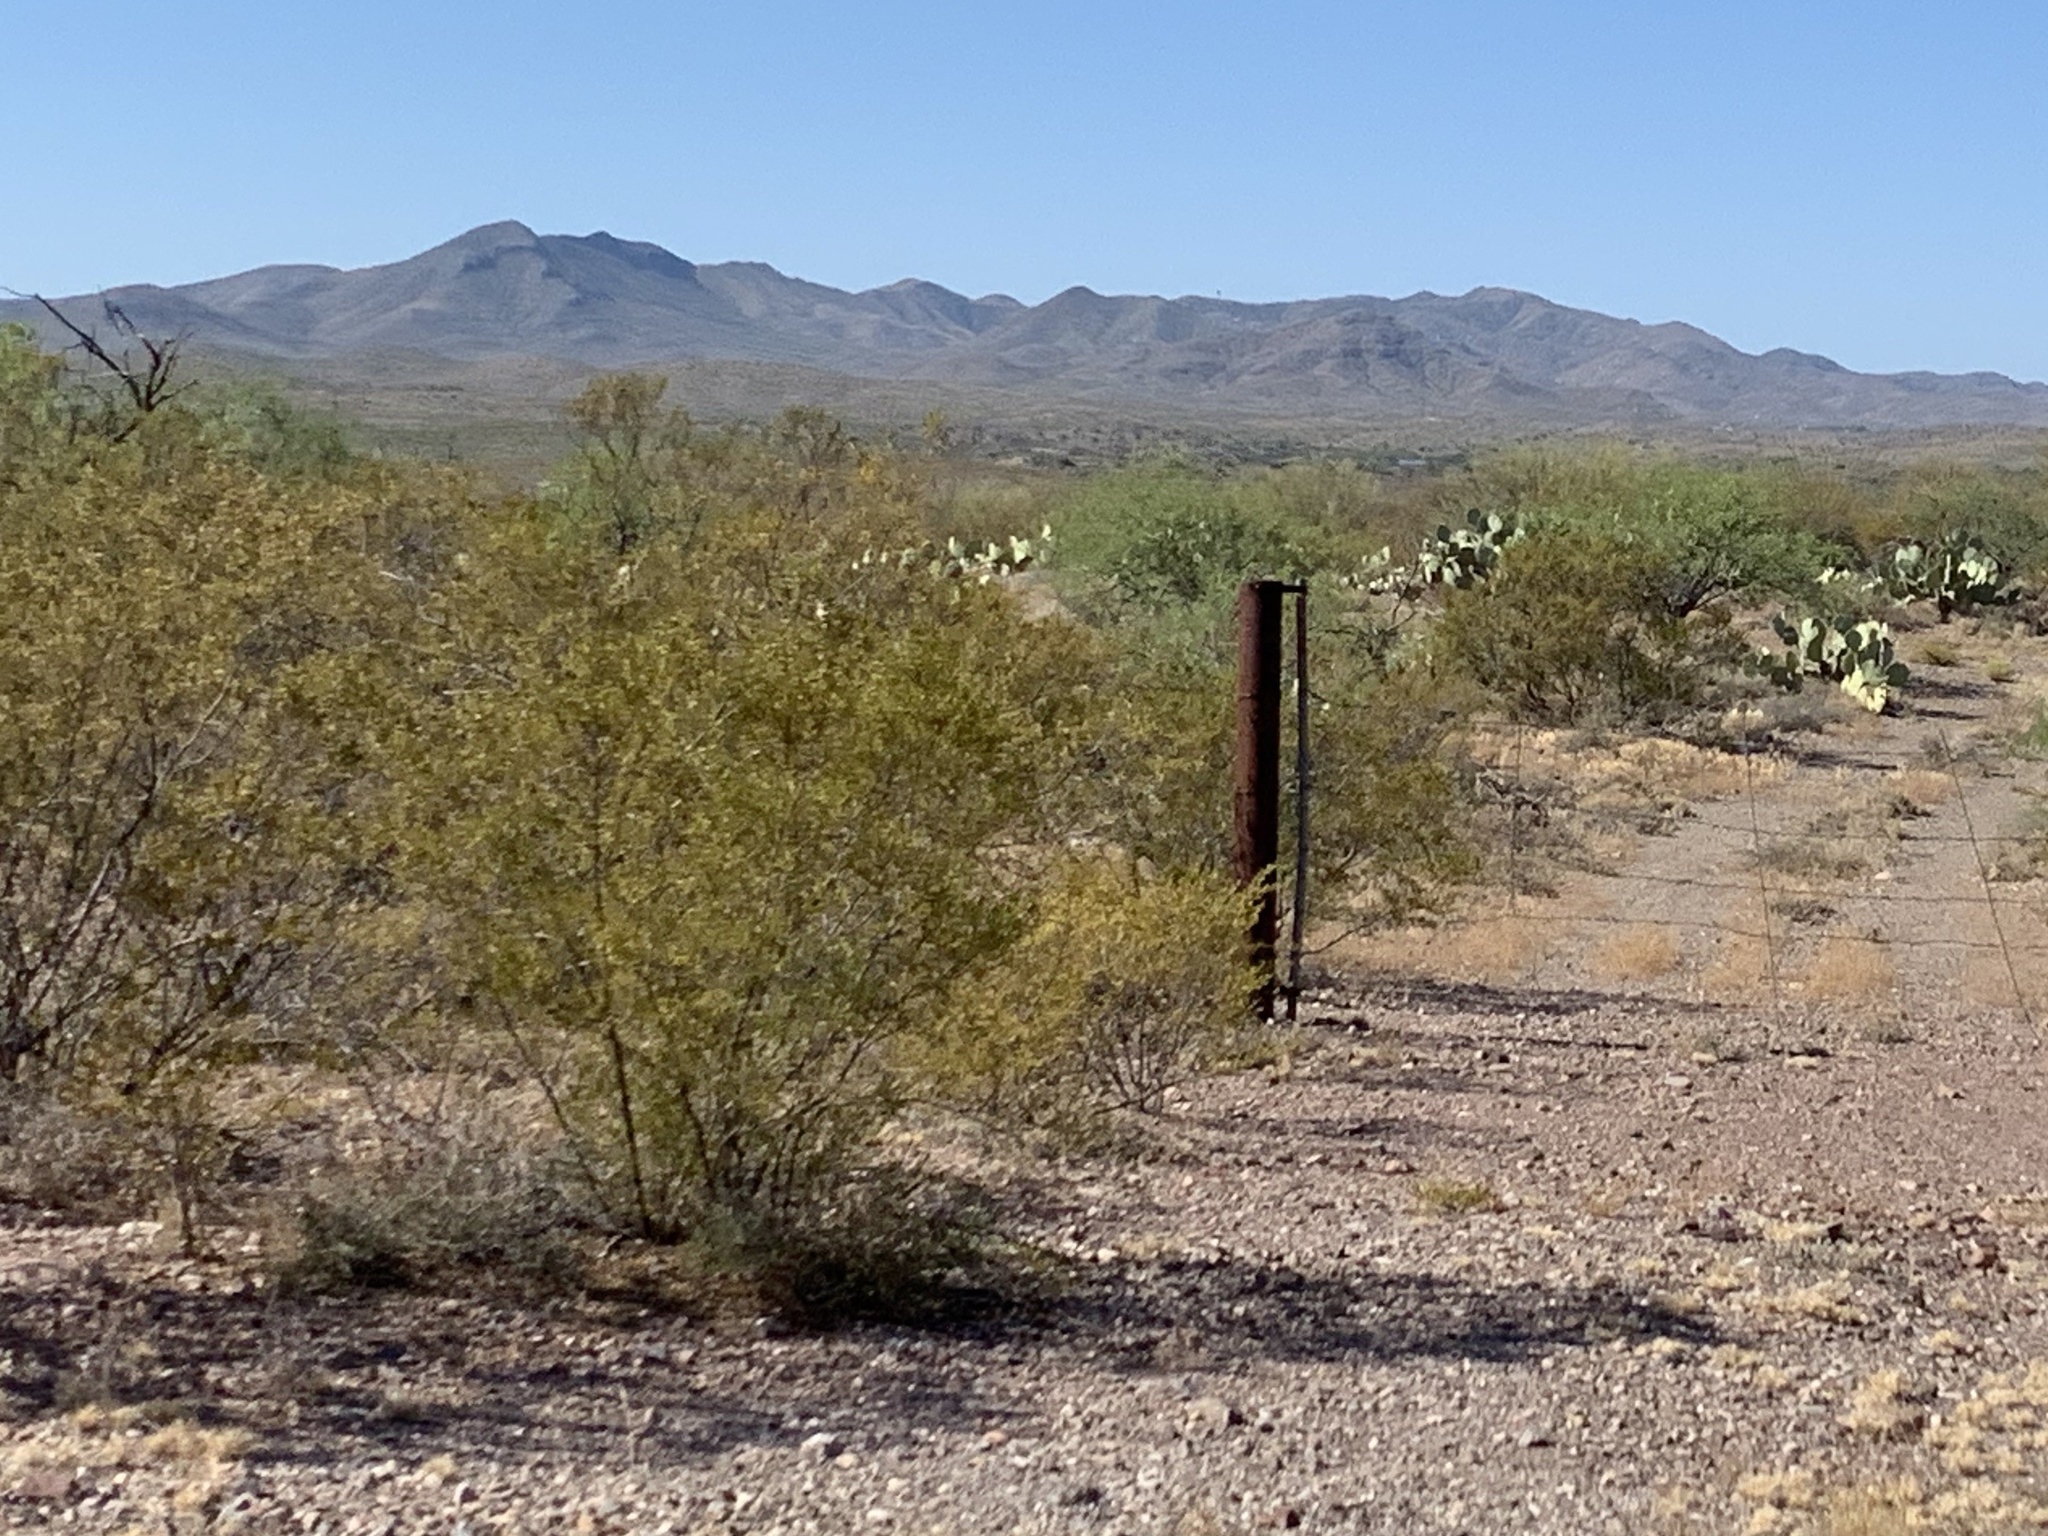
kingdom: Plantae
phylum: Tracheophyta
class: Magnoliopsida
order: Zygophyllales
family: Zygophyllaceae
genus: Larrea
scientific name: Larrea tridentata
